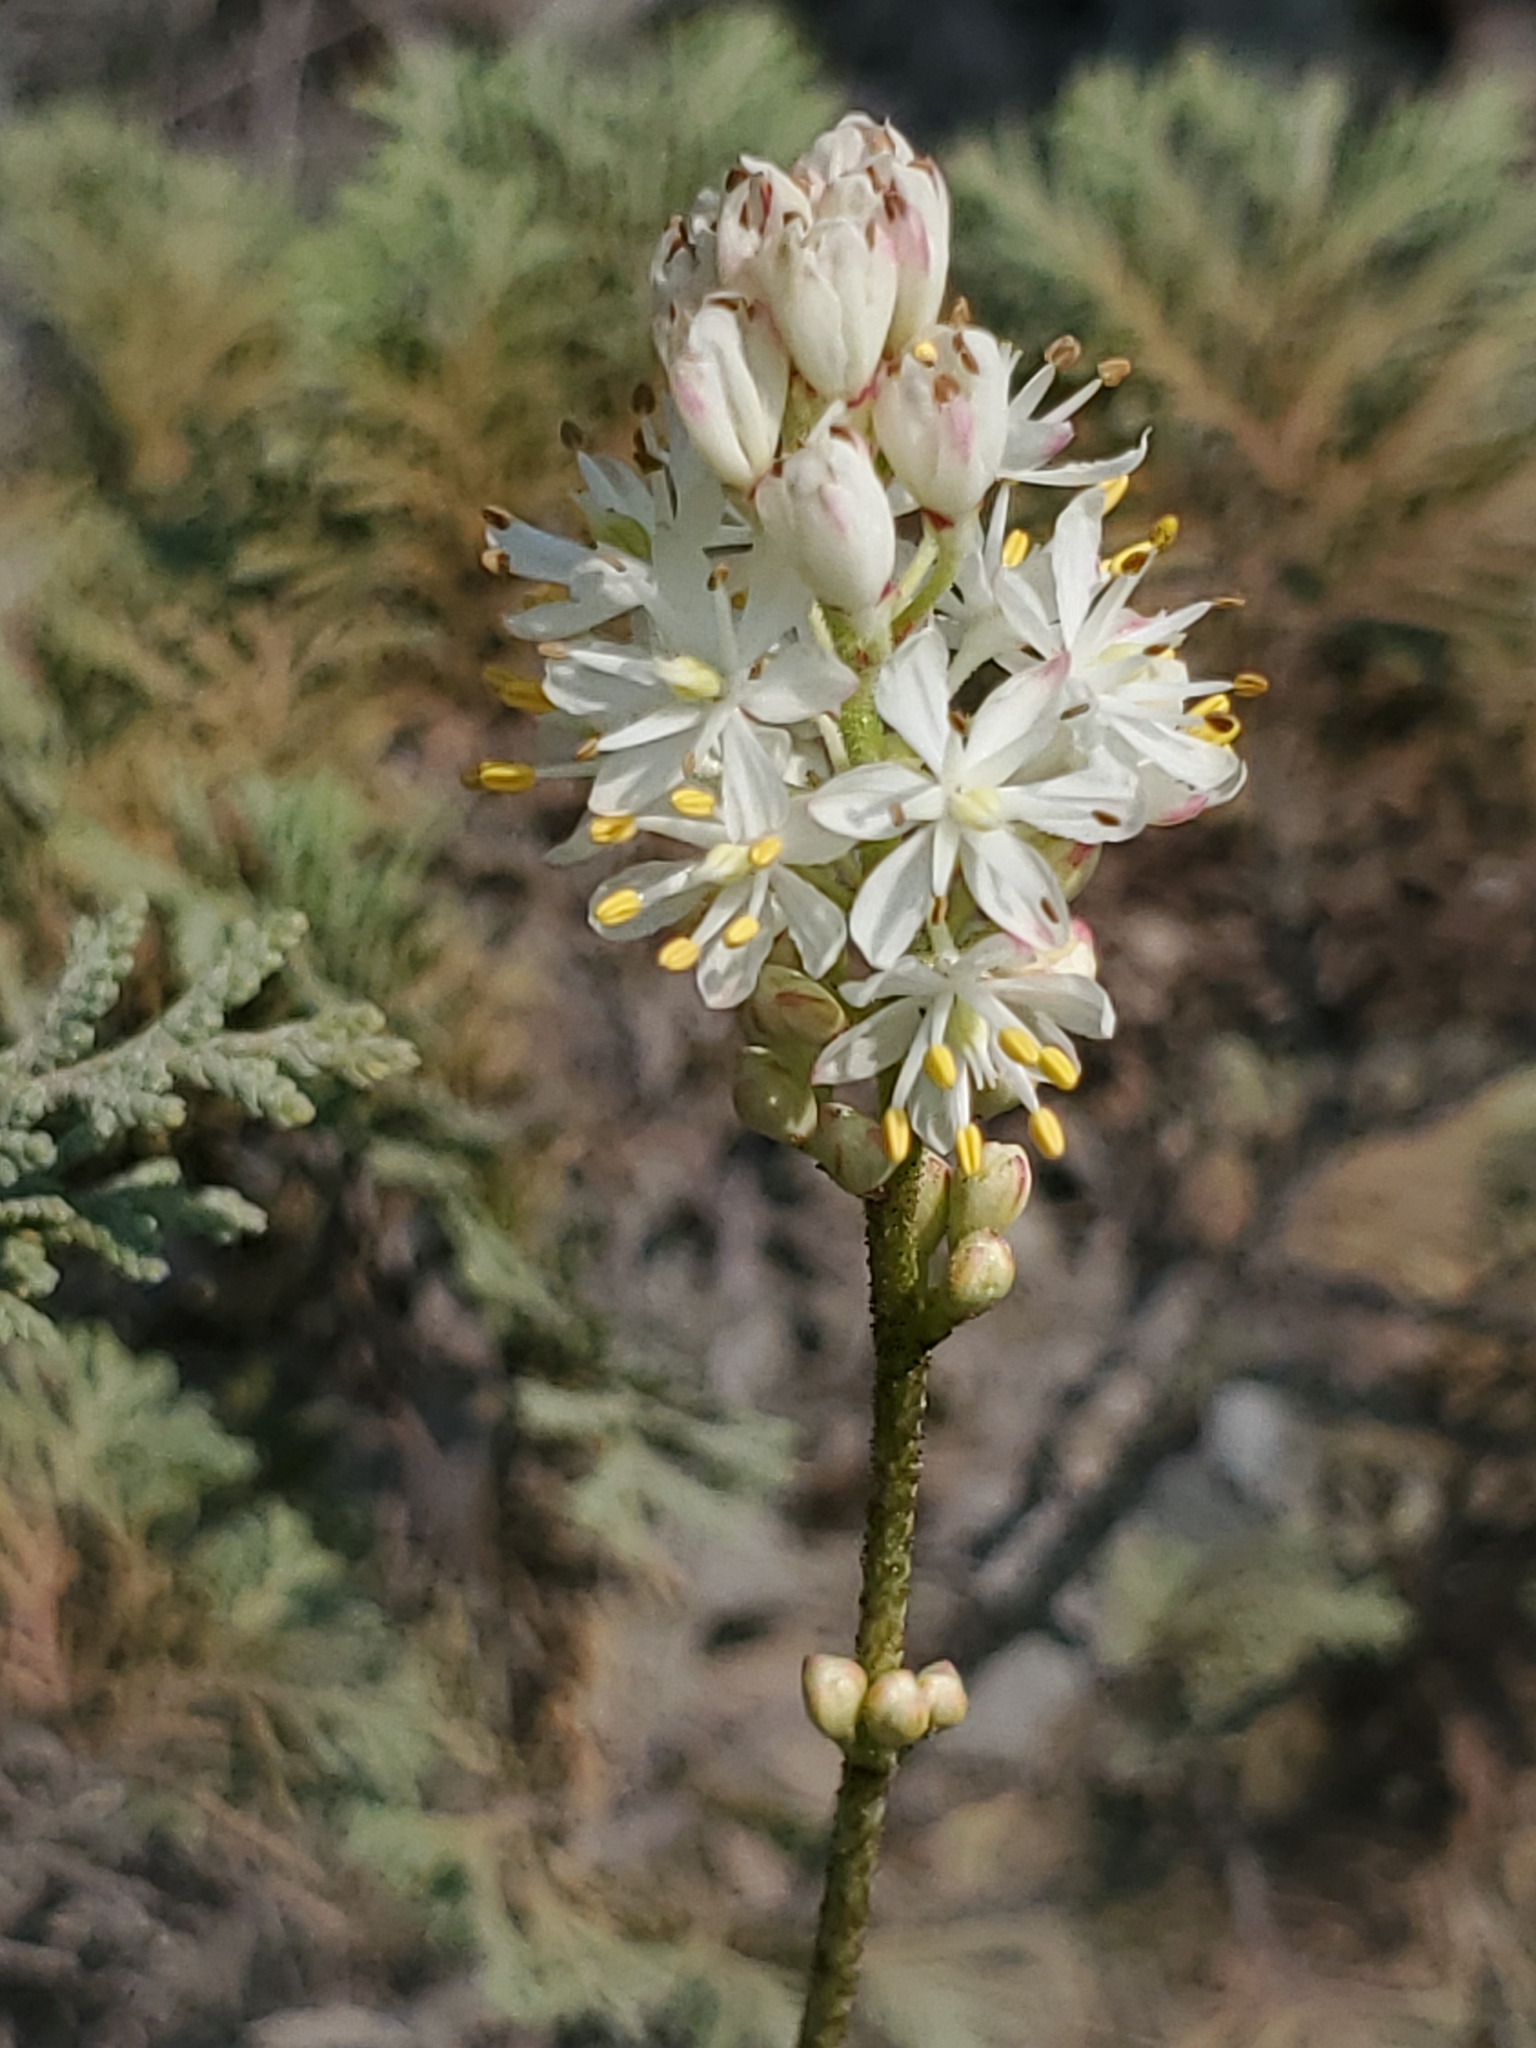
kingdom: Plantae
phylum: Tracheophyta
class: Liliopsida
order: Alismatales
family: Tofieldiaceae
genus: Triantha
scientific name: Triantha occidentalis
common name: Western false asphodel
